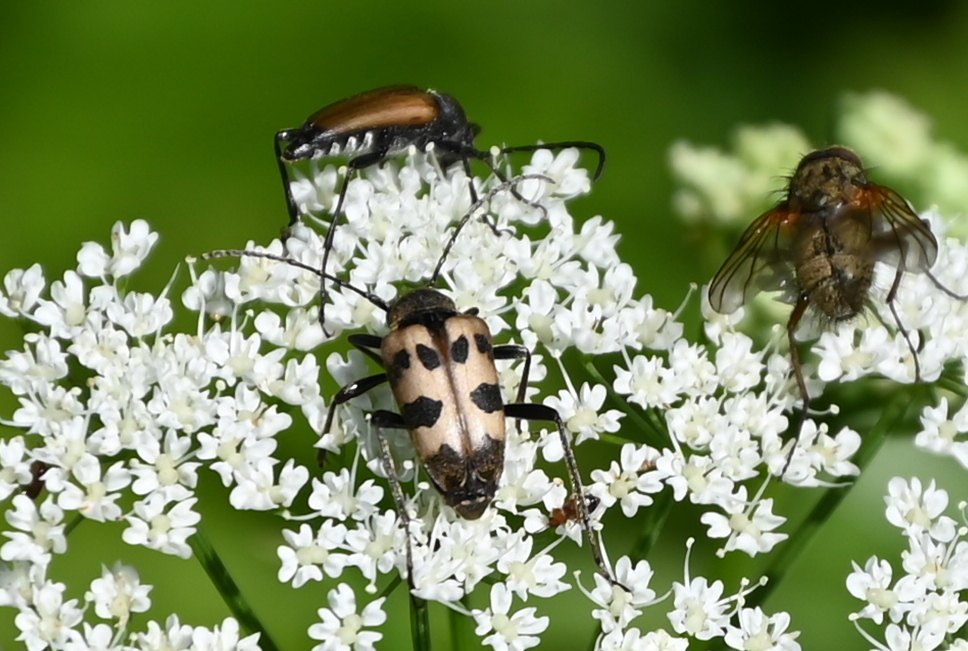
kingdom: Animalia
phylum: Arthropoda
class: Insecta
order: Coleoptera
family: Cerambycidae
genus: Pachytodes
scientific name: Pachytodes cerambyciformis
